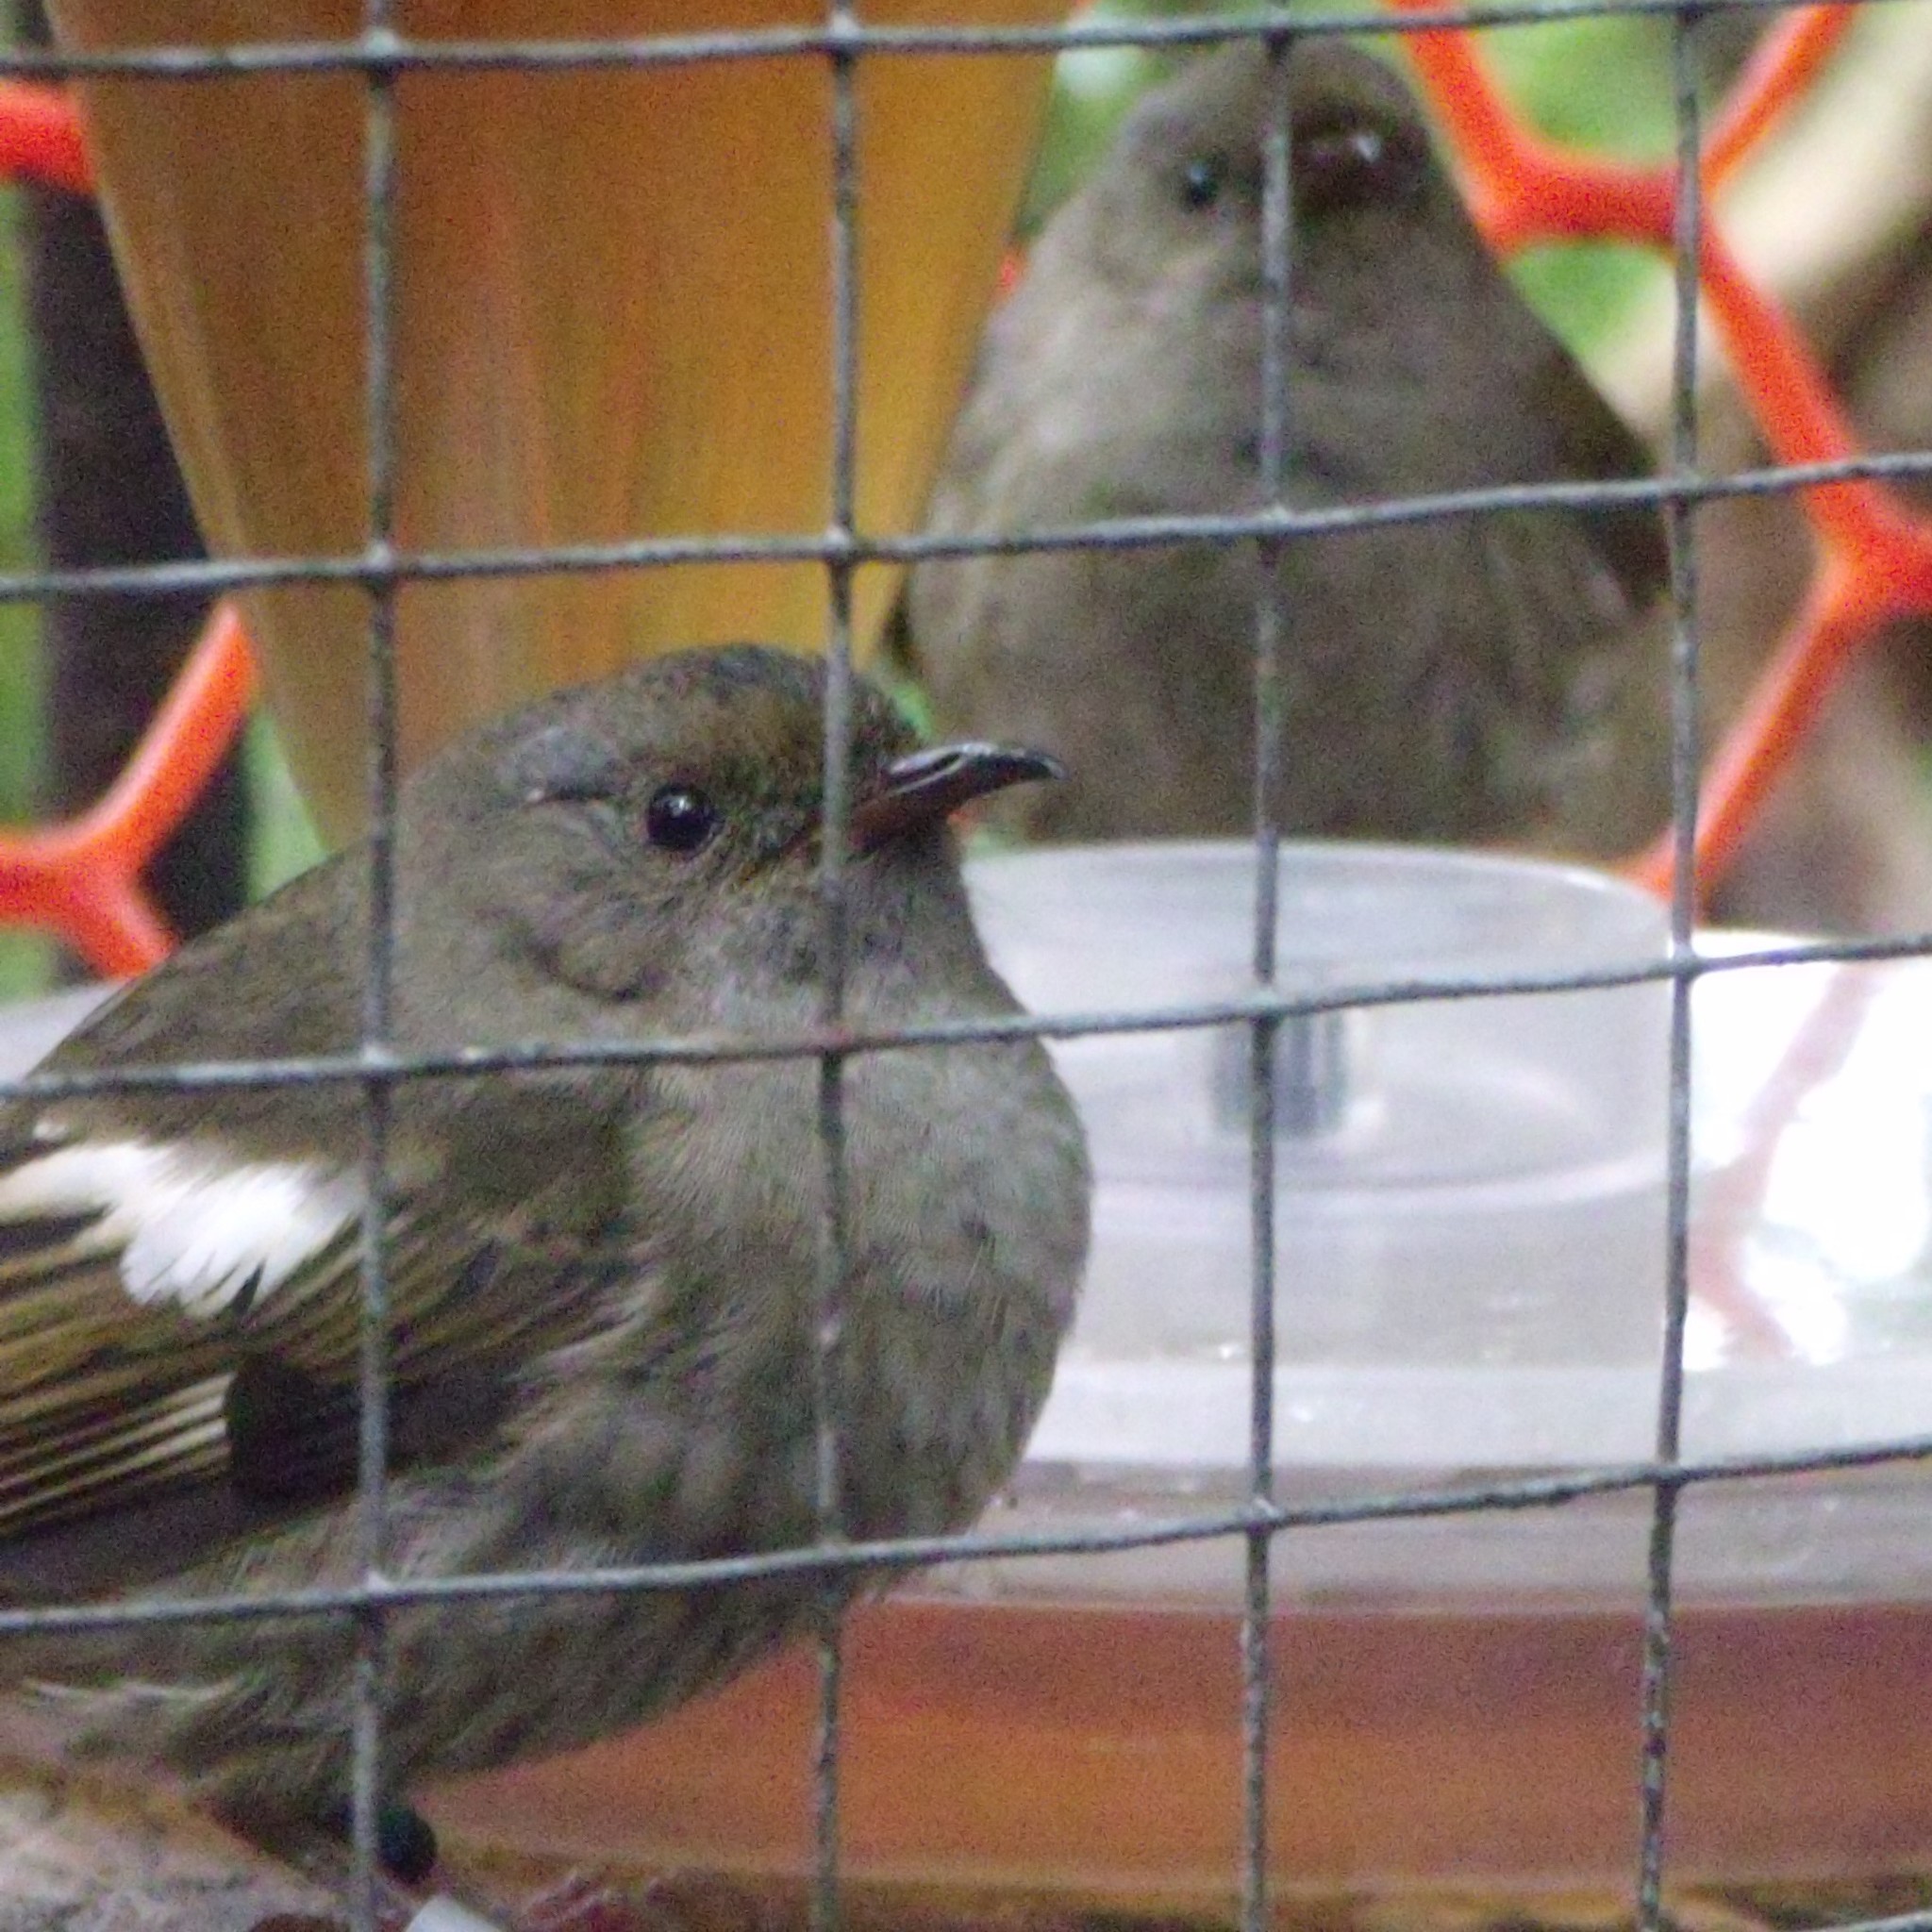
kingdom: Animalia
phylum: Chordata
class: Aves
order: Passeriformes
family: Notiomystidae
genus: Notiomystis
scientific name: Notiomystis cincta
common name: Stitchbird
